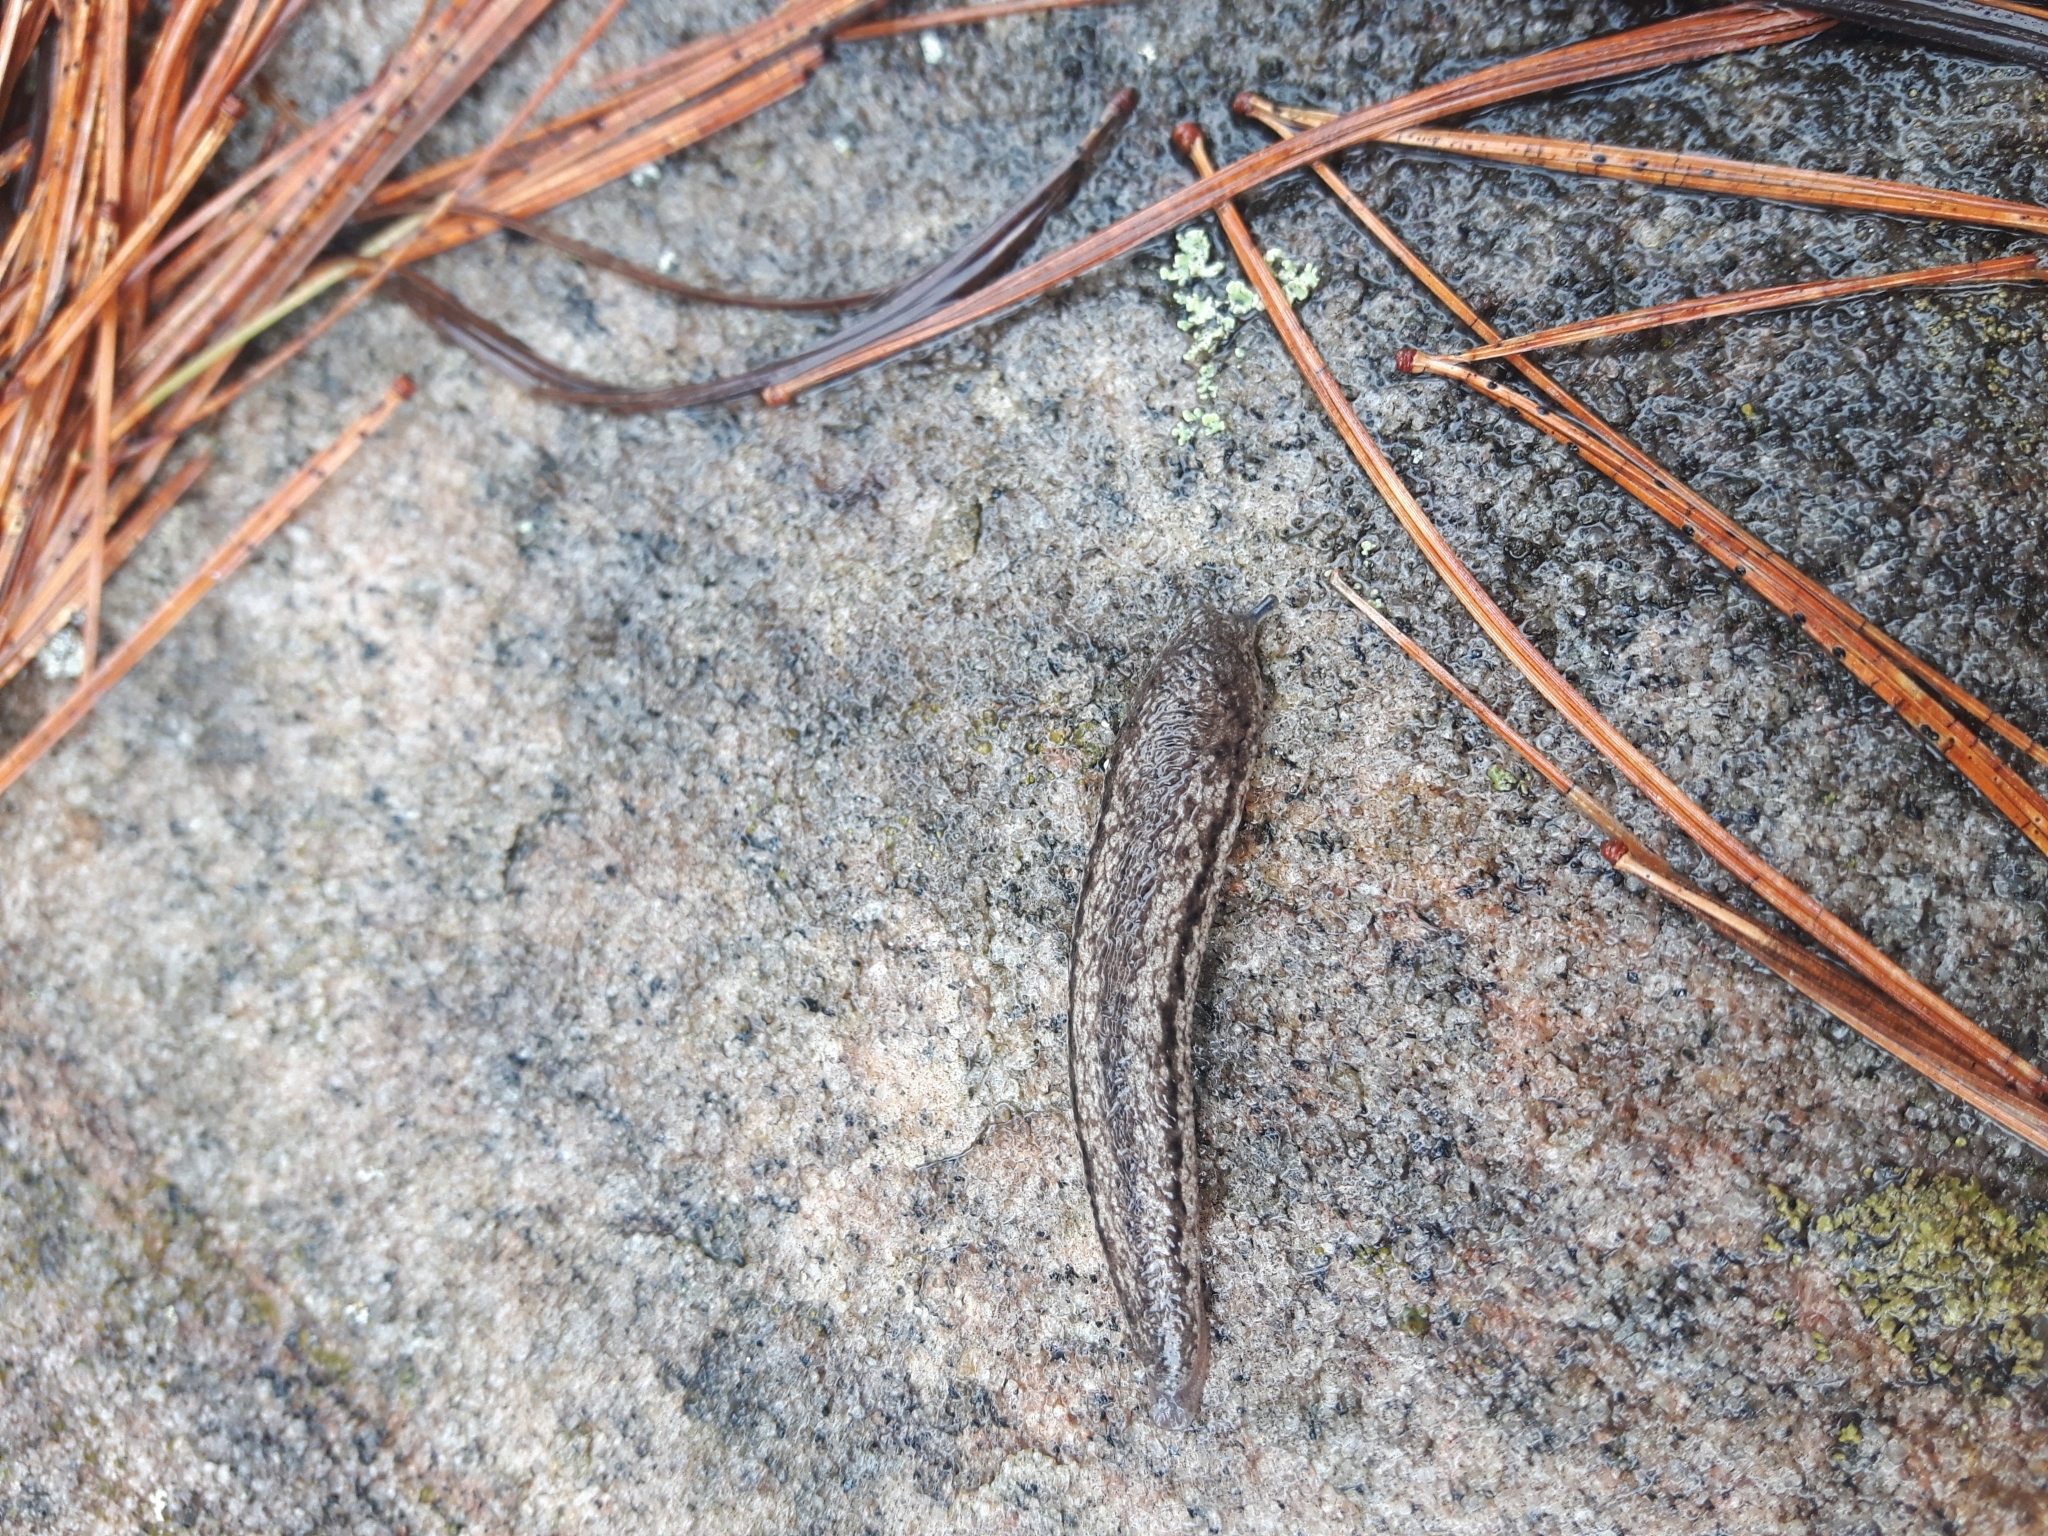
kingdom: Animalia
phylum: Mollusca
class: Gastropoda
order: Stylommatophora
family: Philomycidae
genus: Philomycus
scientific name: Philomycus togatus
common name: Toga mantleslug
